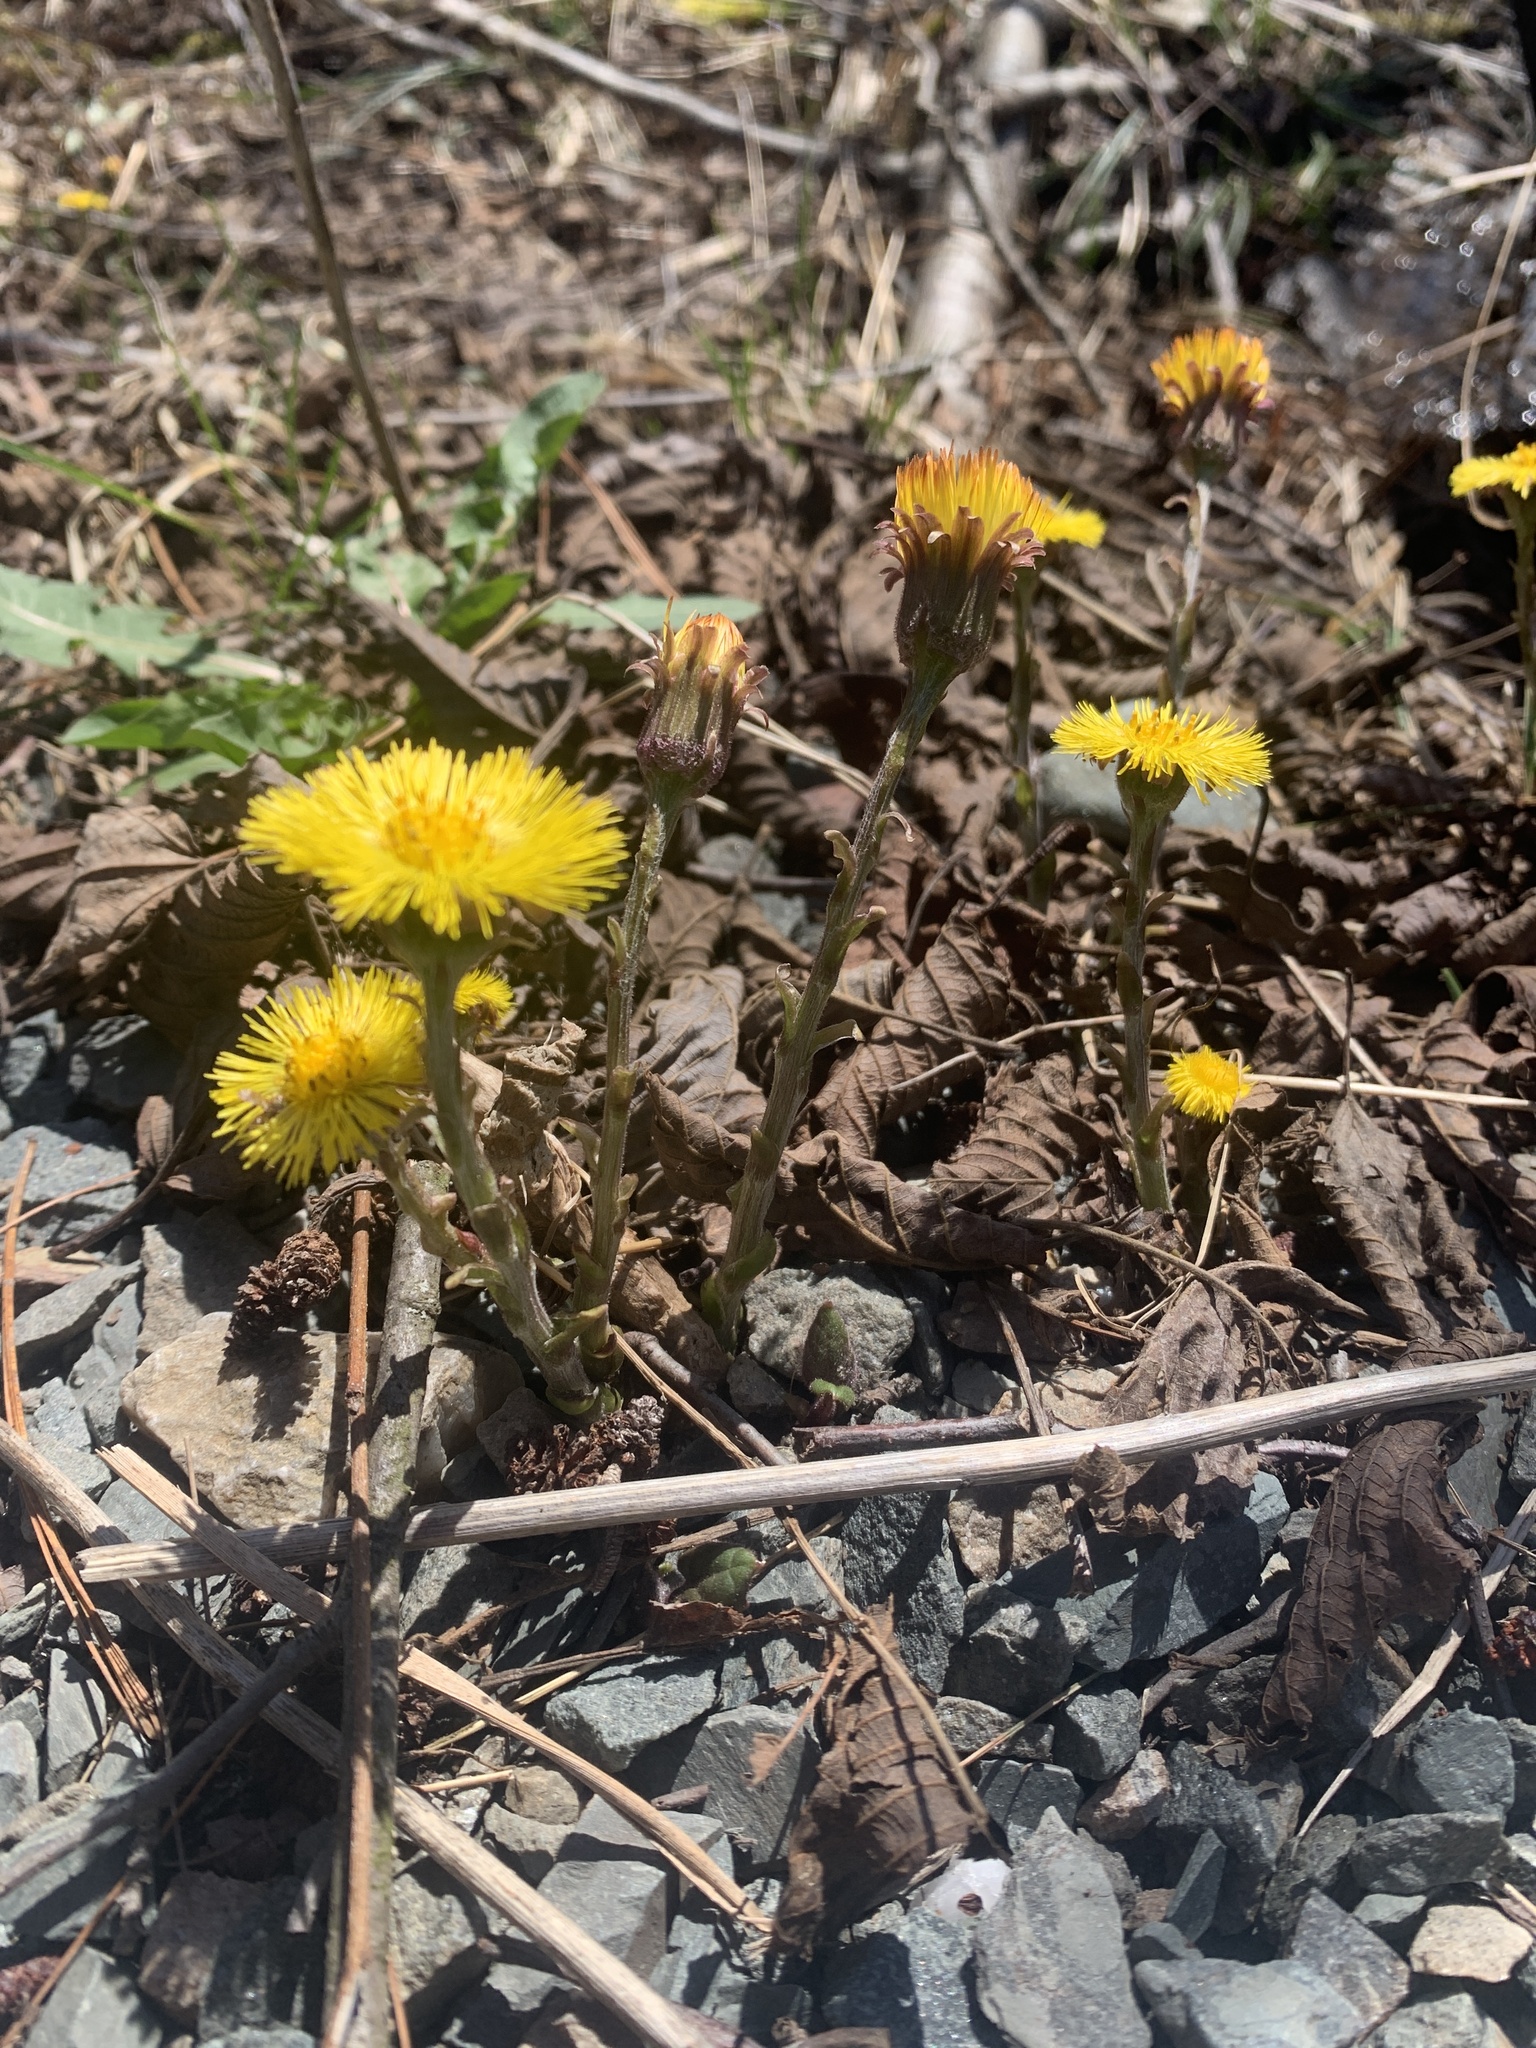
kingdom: Plantae
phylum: Tracheophyta
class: Magnoliopsida
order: Asterales
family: Asteraceae
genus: Tussilago
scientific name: Tussilago farfara
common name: Coltsfoot
